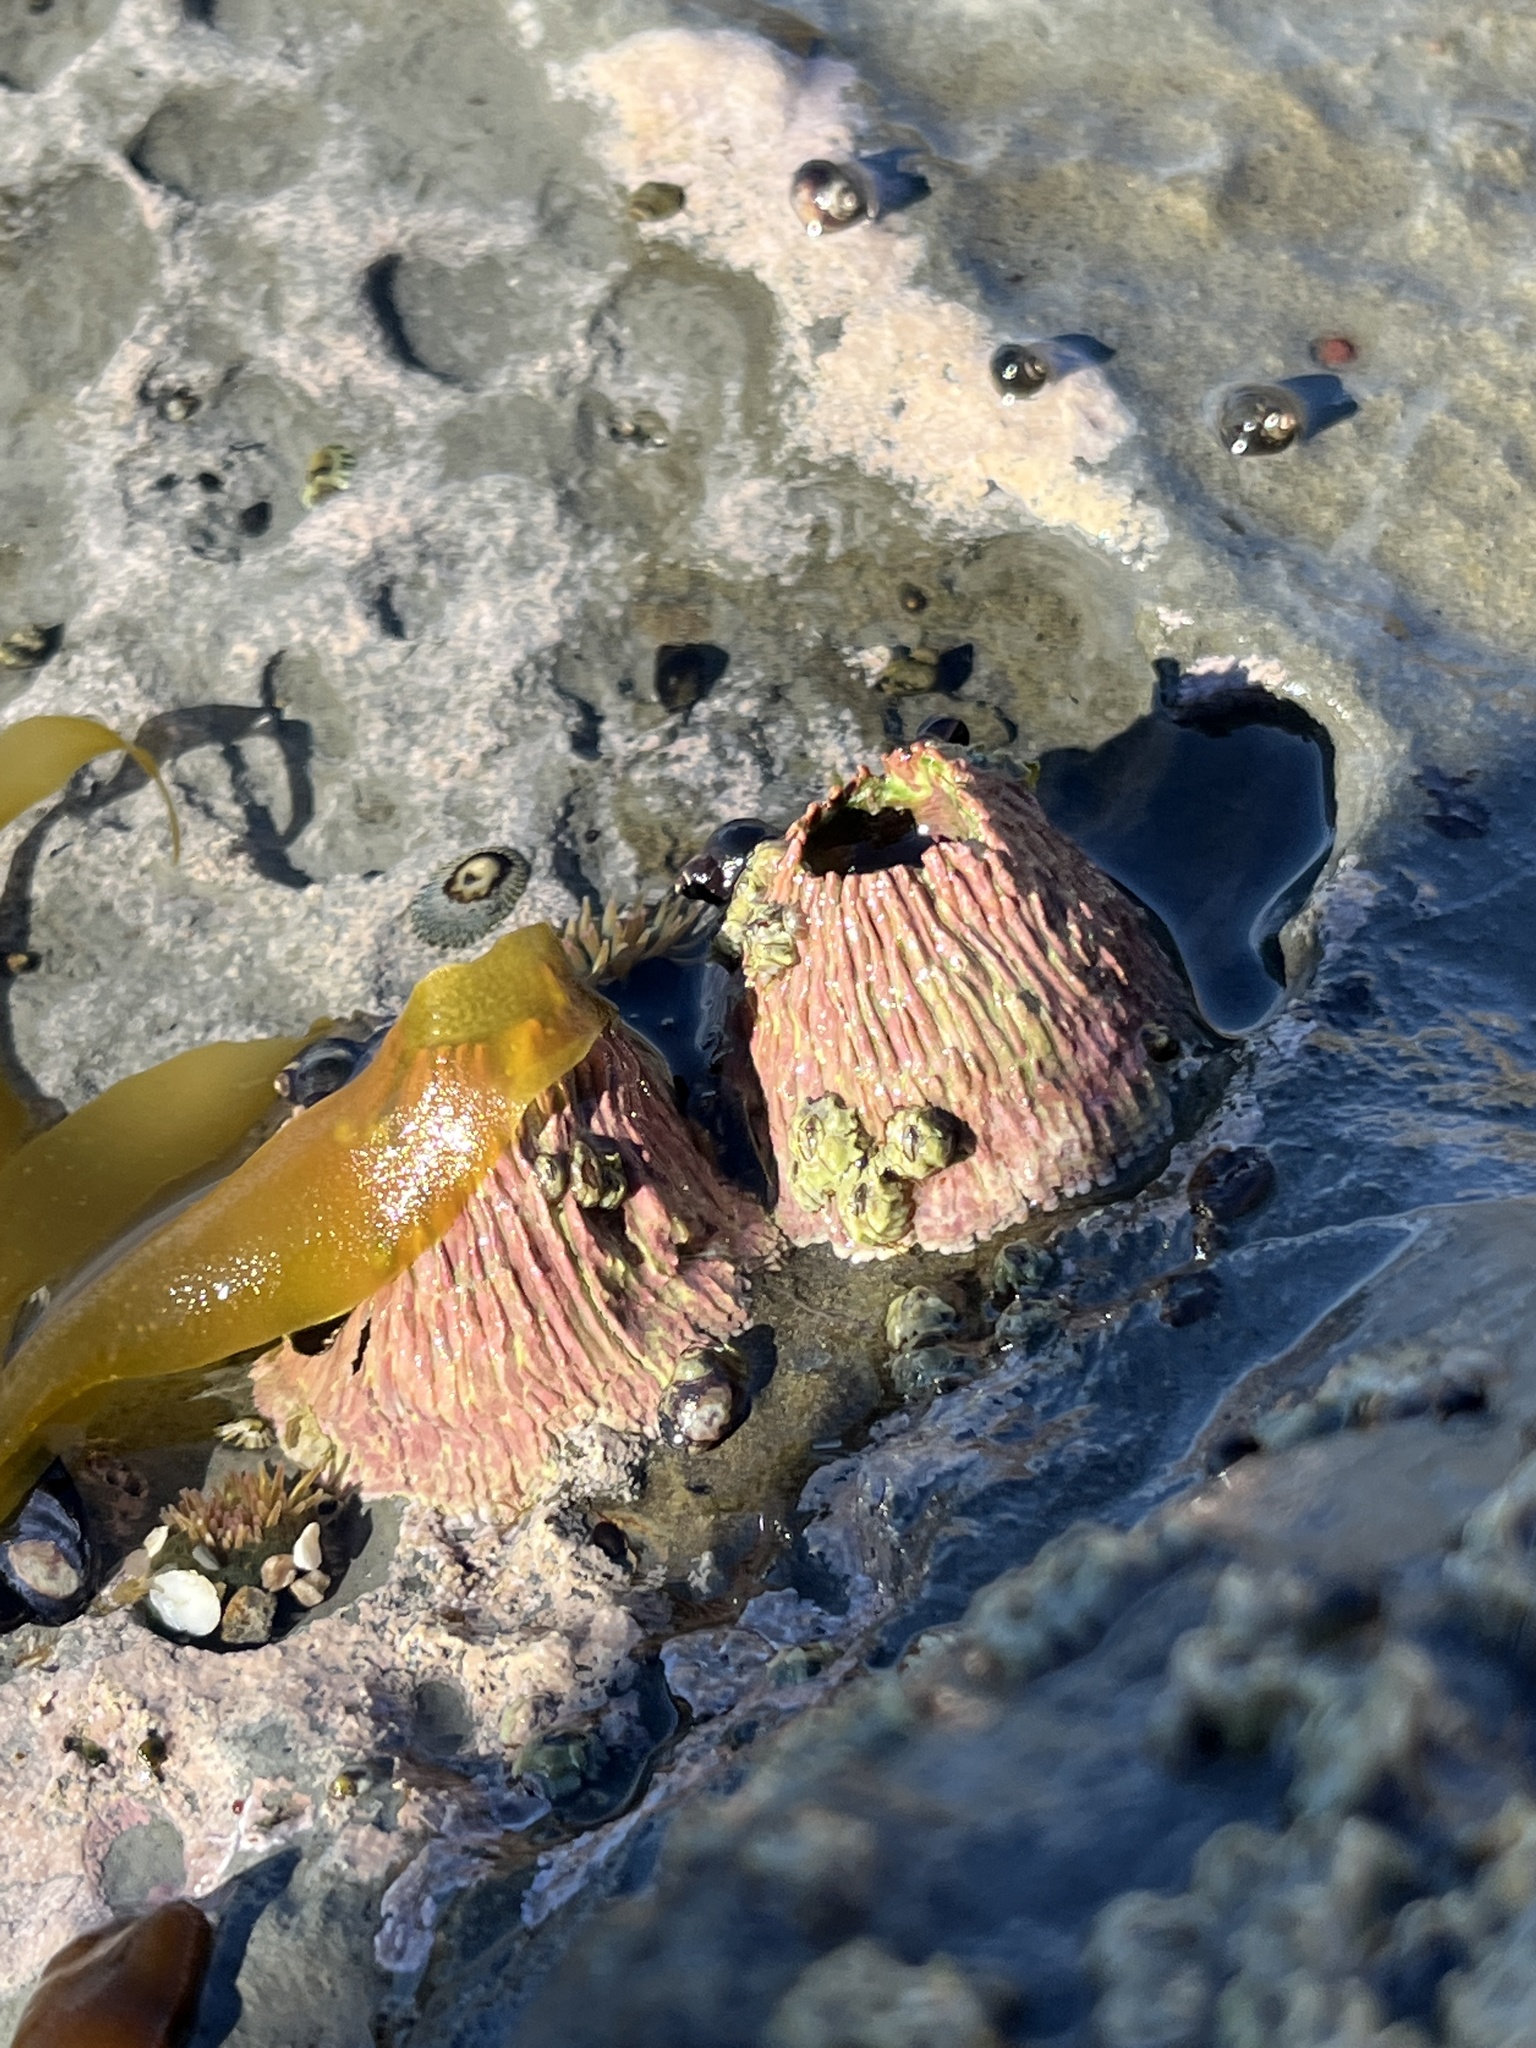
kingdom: Animalia
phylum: Arthropoda
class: Maxillopoda
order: Sessilia
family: Tetraclitidae
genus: Tetraclita
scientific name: Tetraclita rubescens
